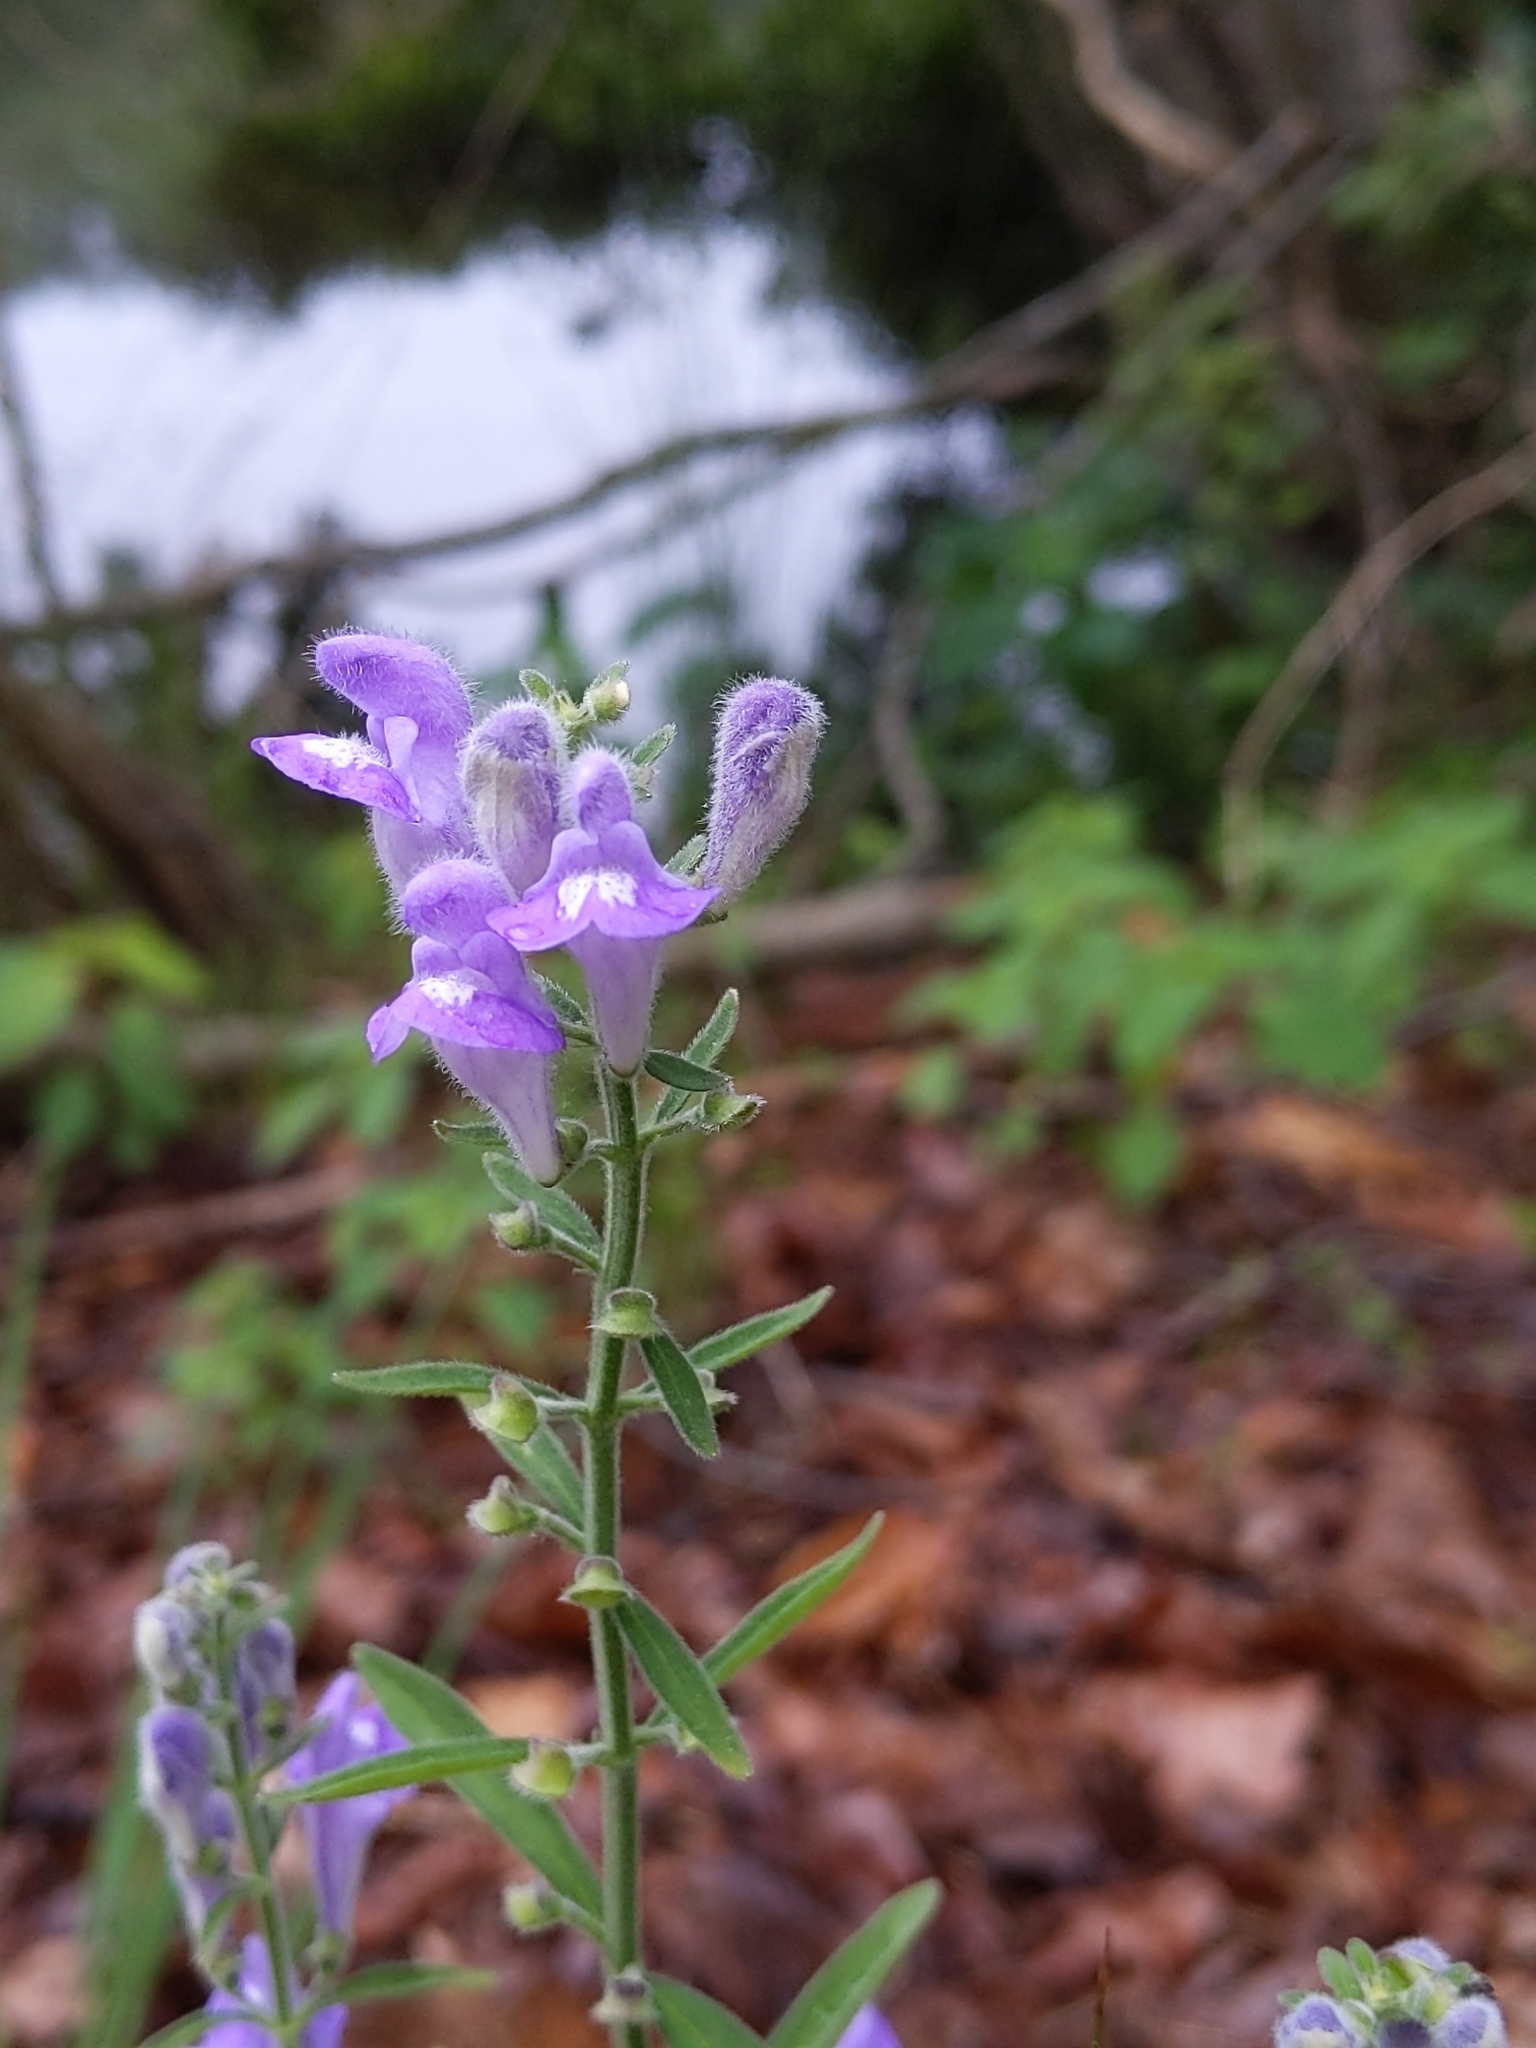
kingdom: Plantae
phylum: Tracheophyta
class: Magnoliopsida
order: Lamiales
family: Lamiaceae
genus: Scutellaria
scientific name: Scutellaria integrifolia
